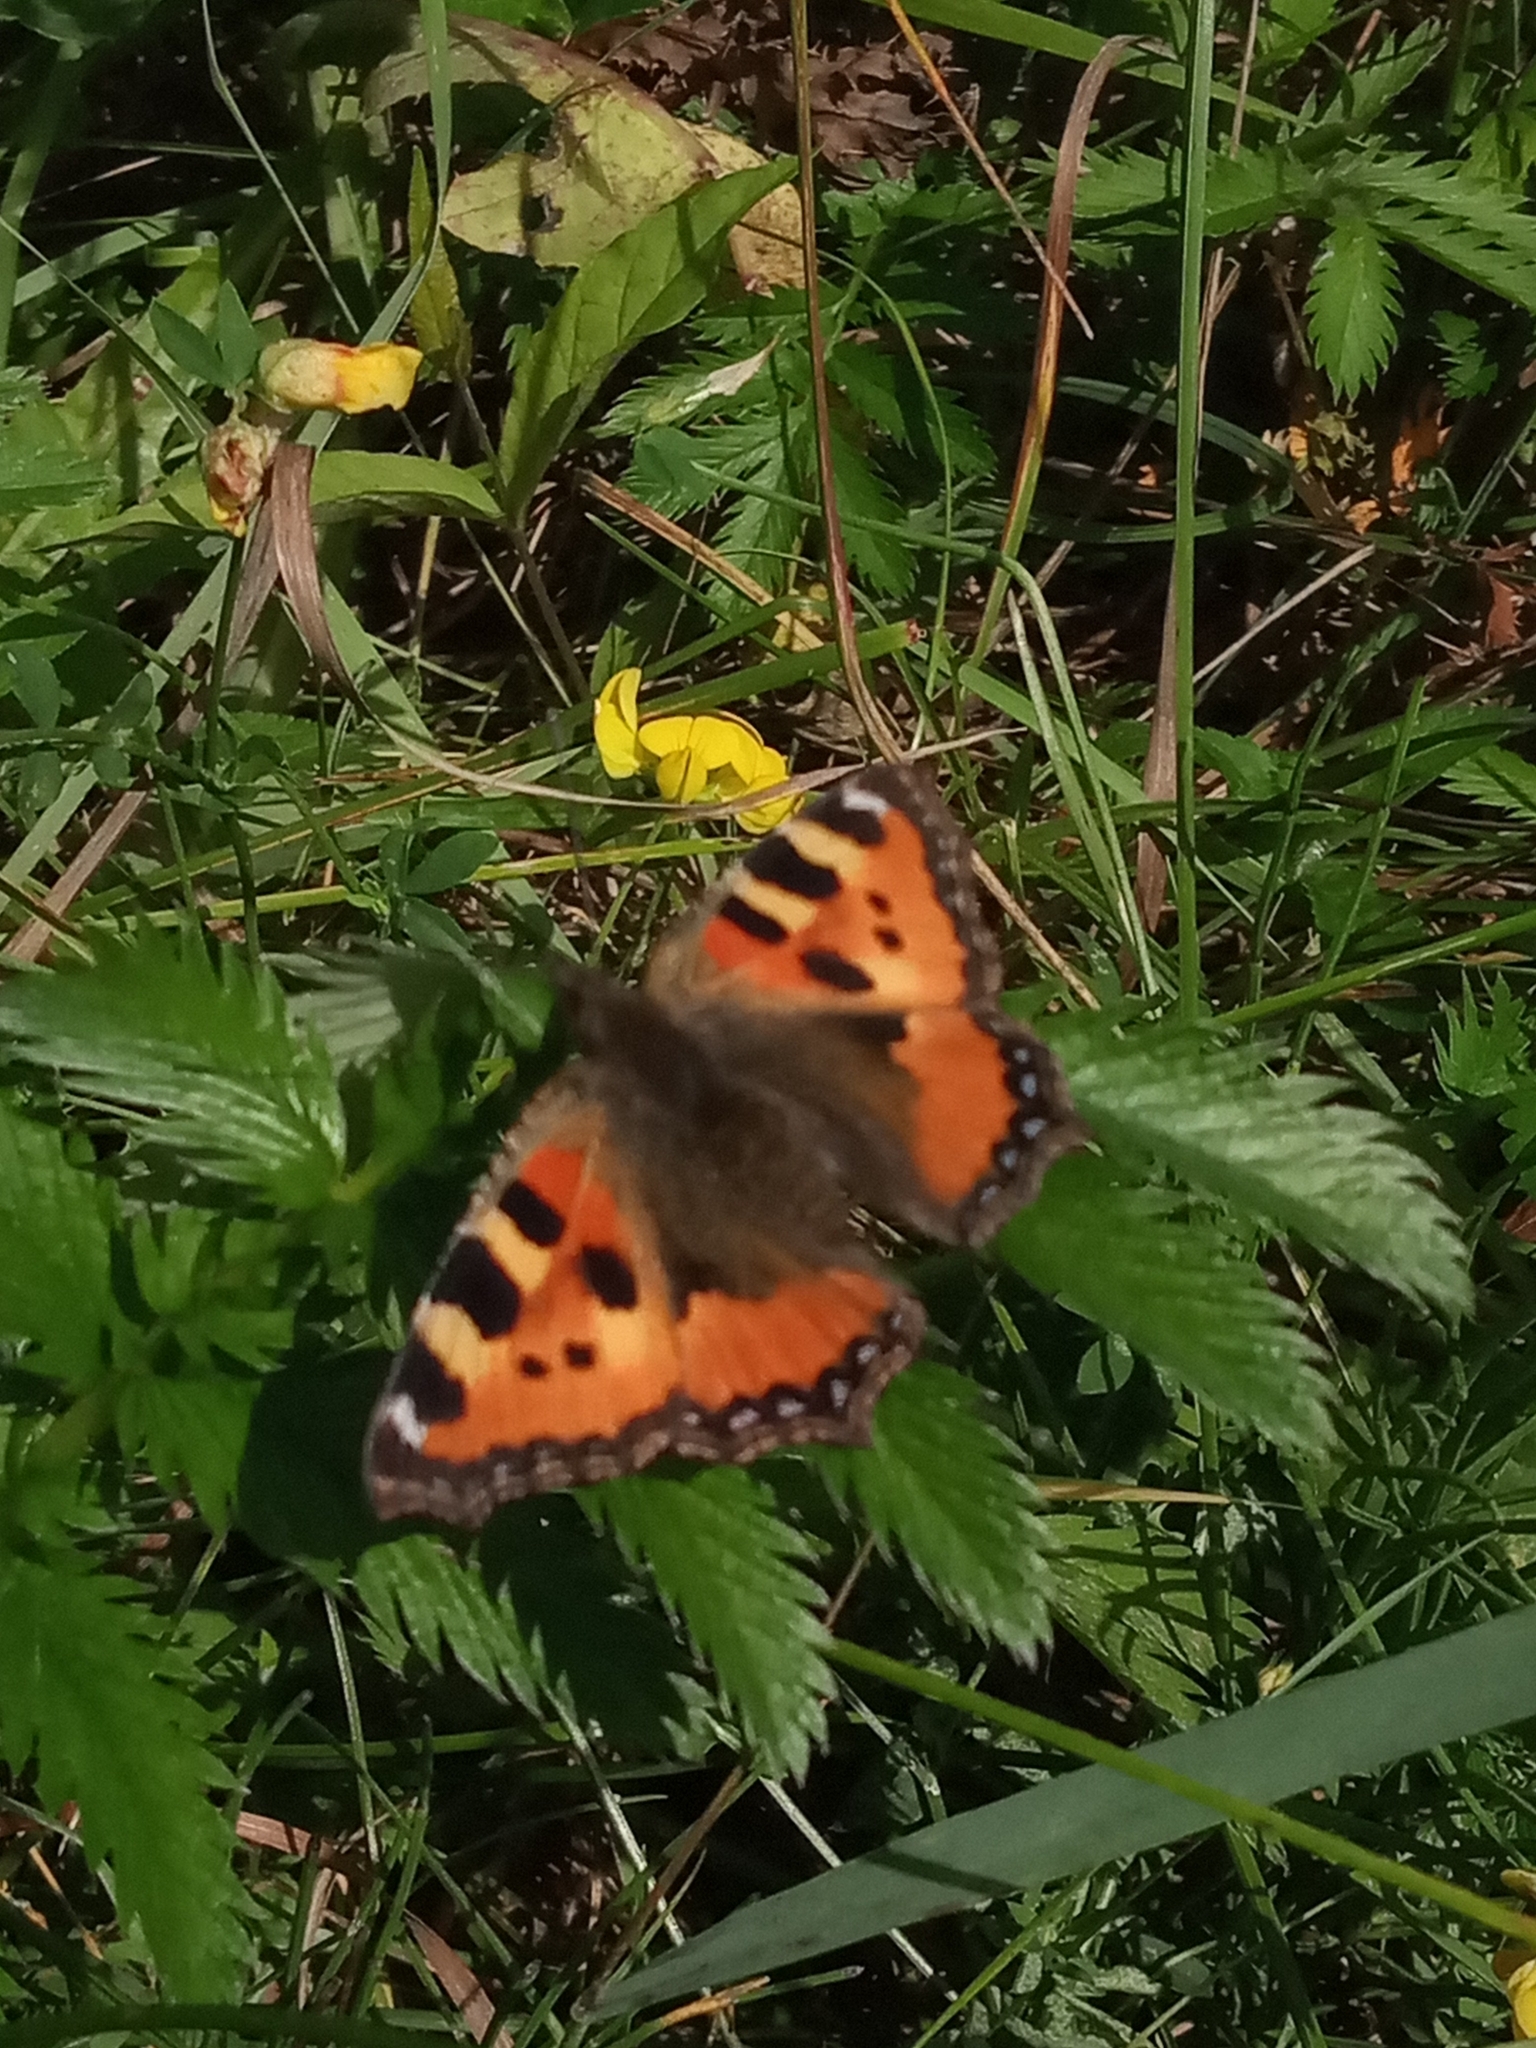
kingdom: Animalia
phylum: Arthropoda
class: Insecta
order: Lepidoptera
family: Nymphalidae
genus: Aglais
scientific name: Aglais urticae
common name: Small tortoiseshell
